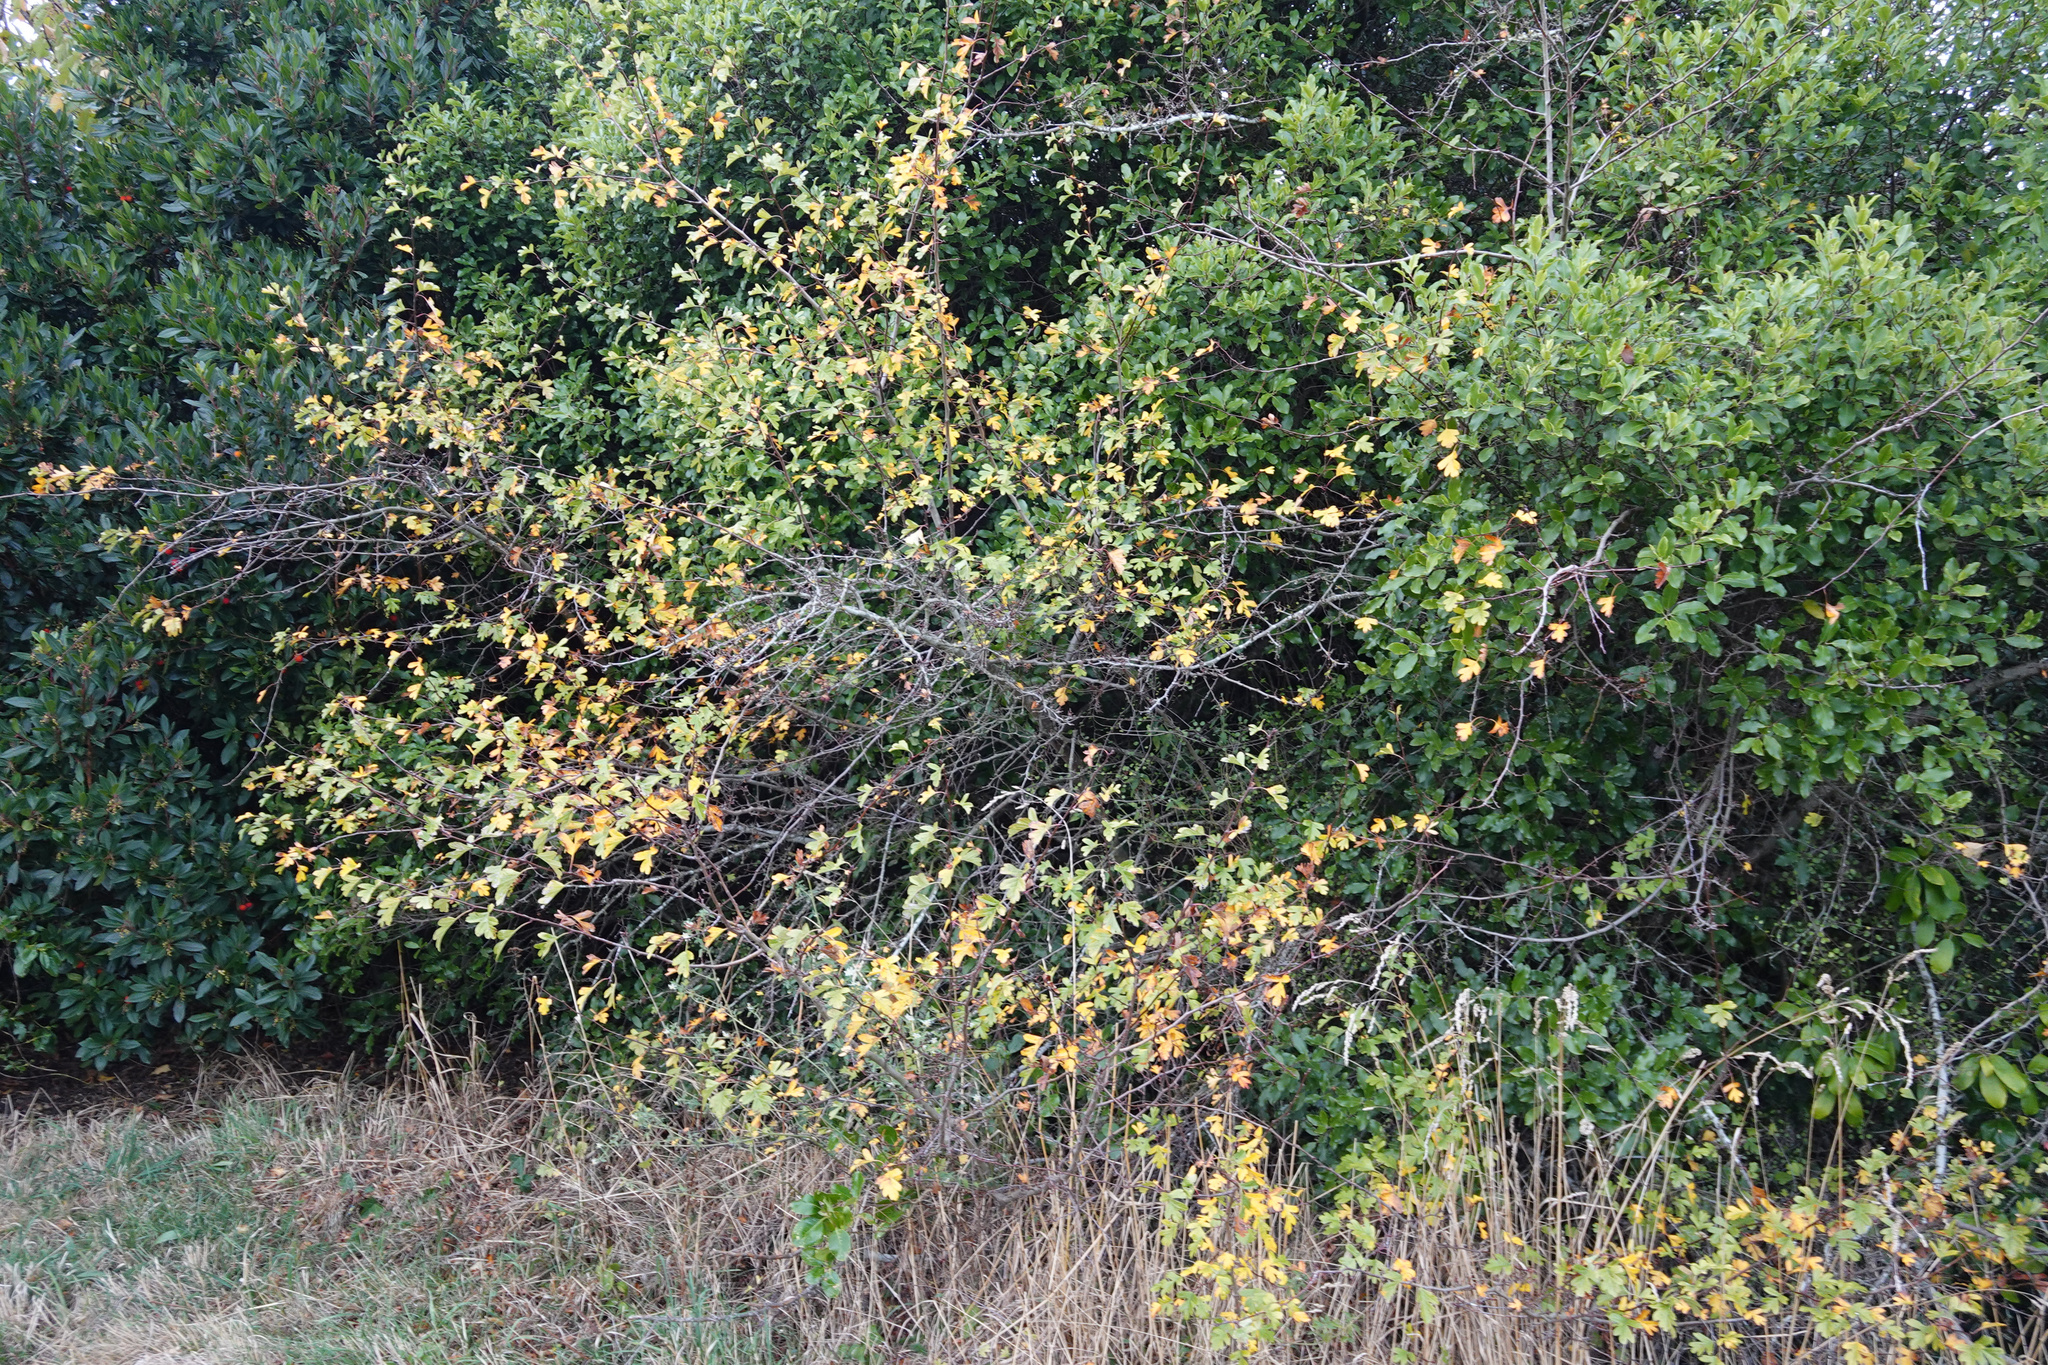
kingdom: Plantae
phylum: Tracheophyta
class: Magnoliopsida
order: Rosales
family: Rosaceae
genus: Crataegus
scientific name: Crataegus monogyna
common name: Hawthorn
